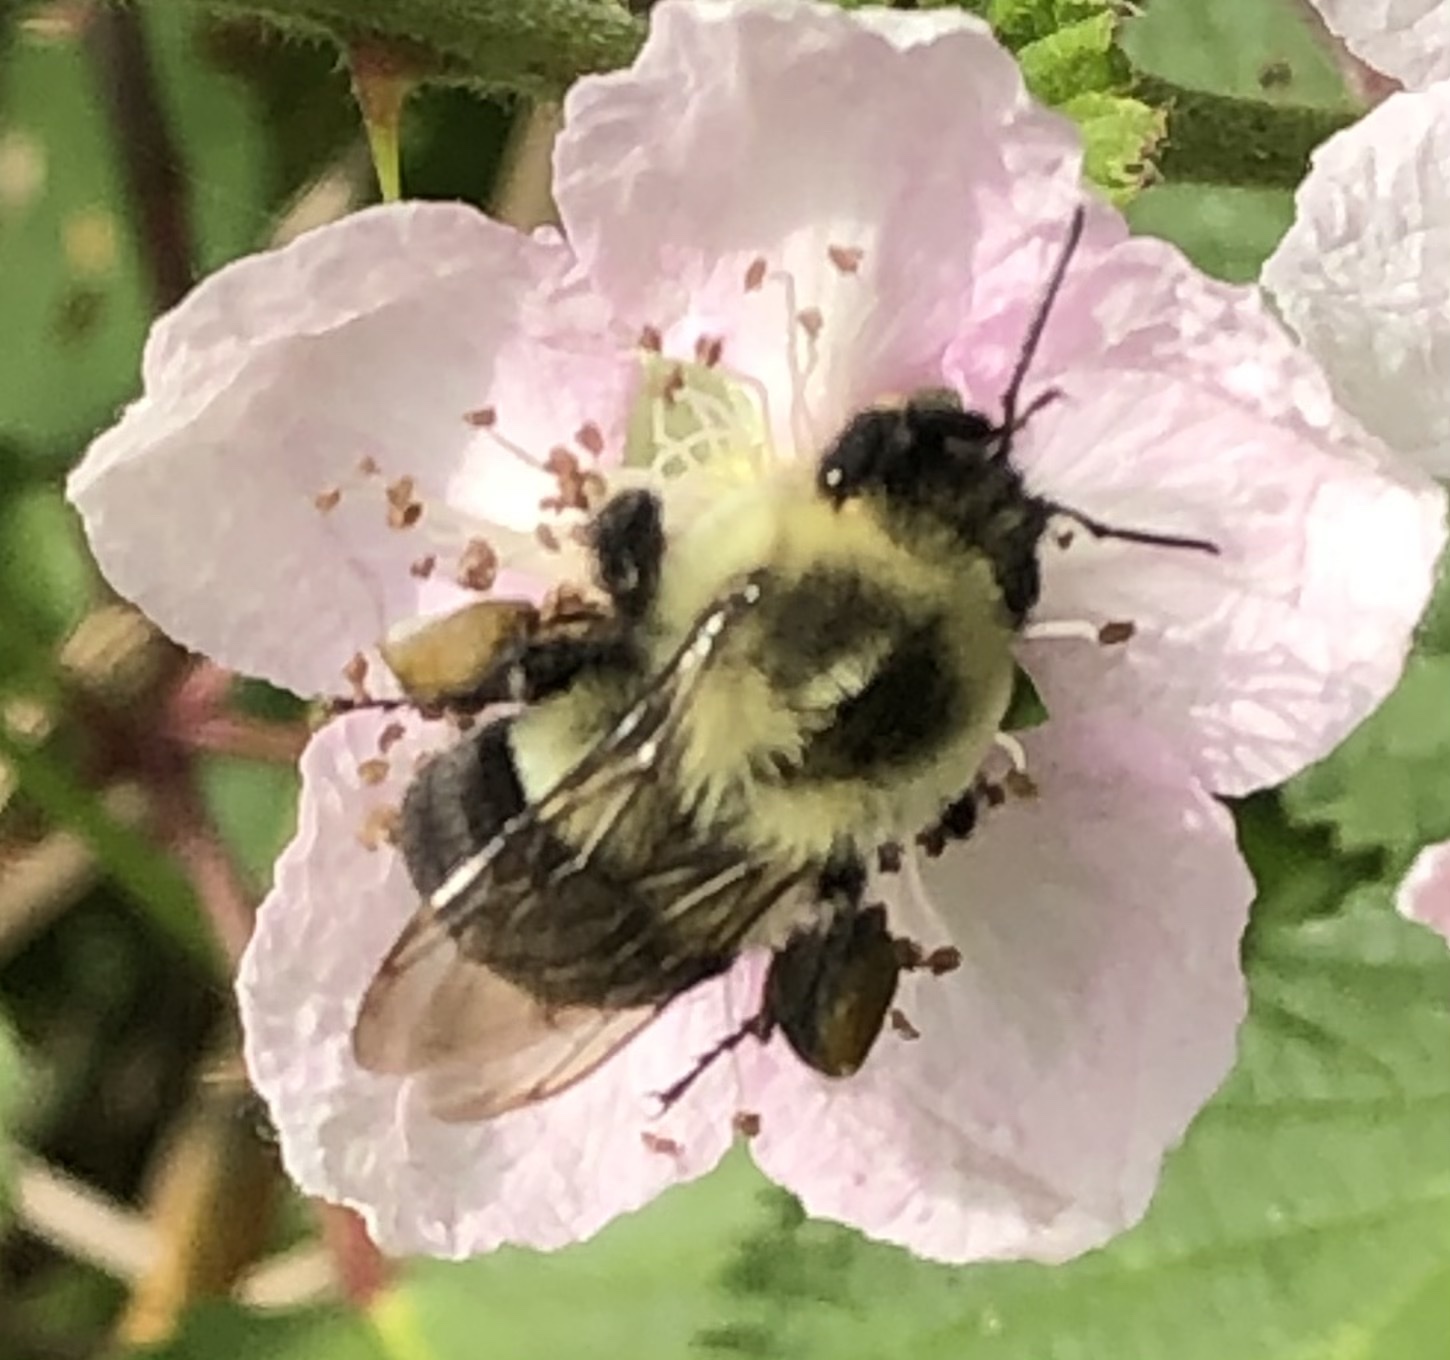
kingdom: Animalia
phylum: Arthropoda
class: Insecta
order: Hymenoptera
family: Apidae
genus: Bombus
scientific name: Bombus impatiens
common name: Common eastern bumble bee
